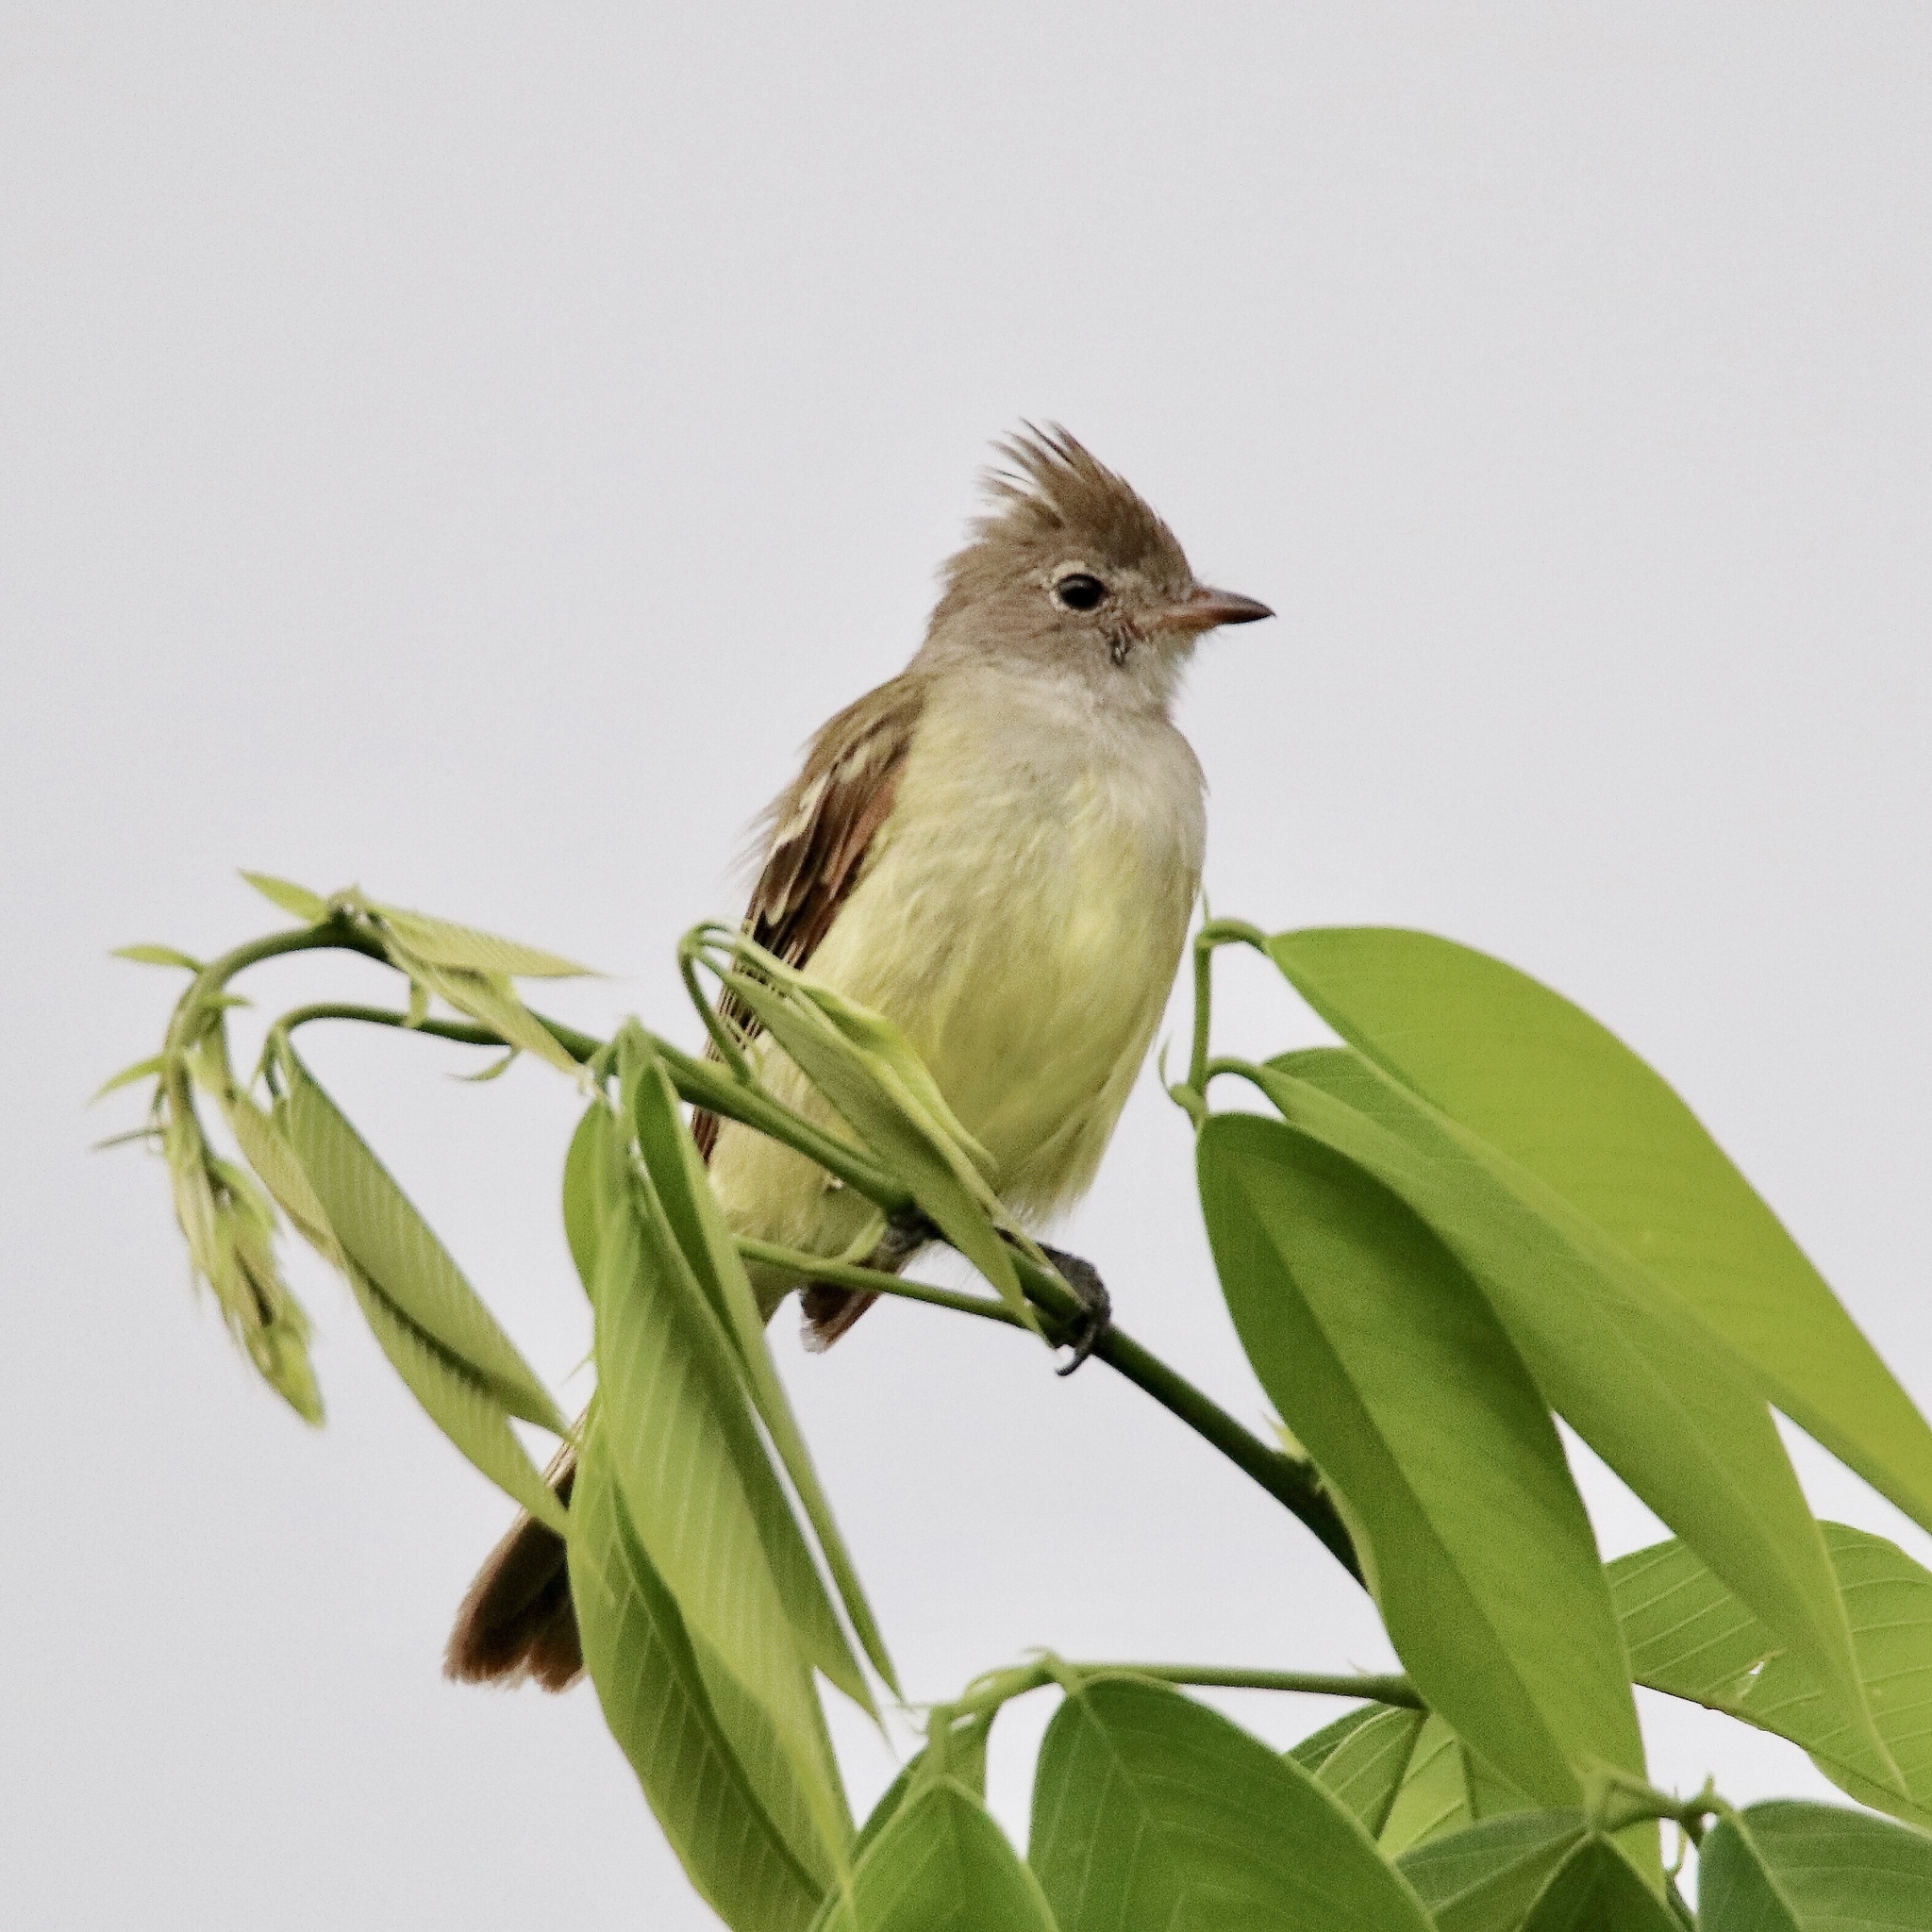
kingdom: Animalia
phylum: Chordata
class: Aves
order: Passeriformes
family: Tyrannidae
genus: Elaenia
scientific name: Elaenia flavogaster
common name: Yellow-bellied elaenia
